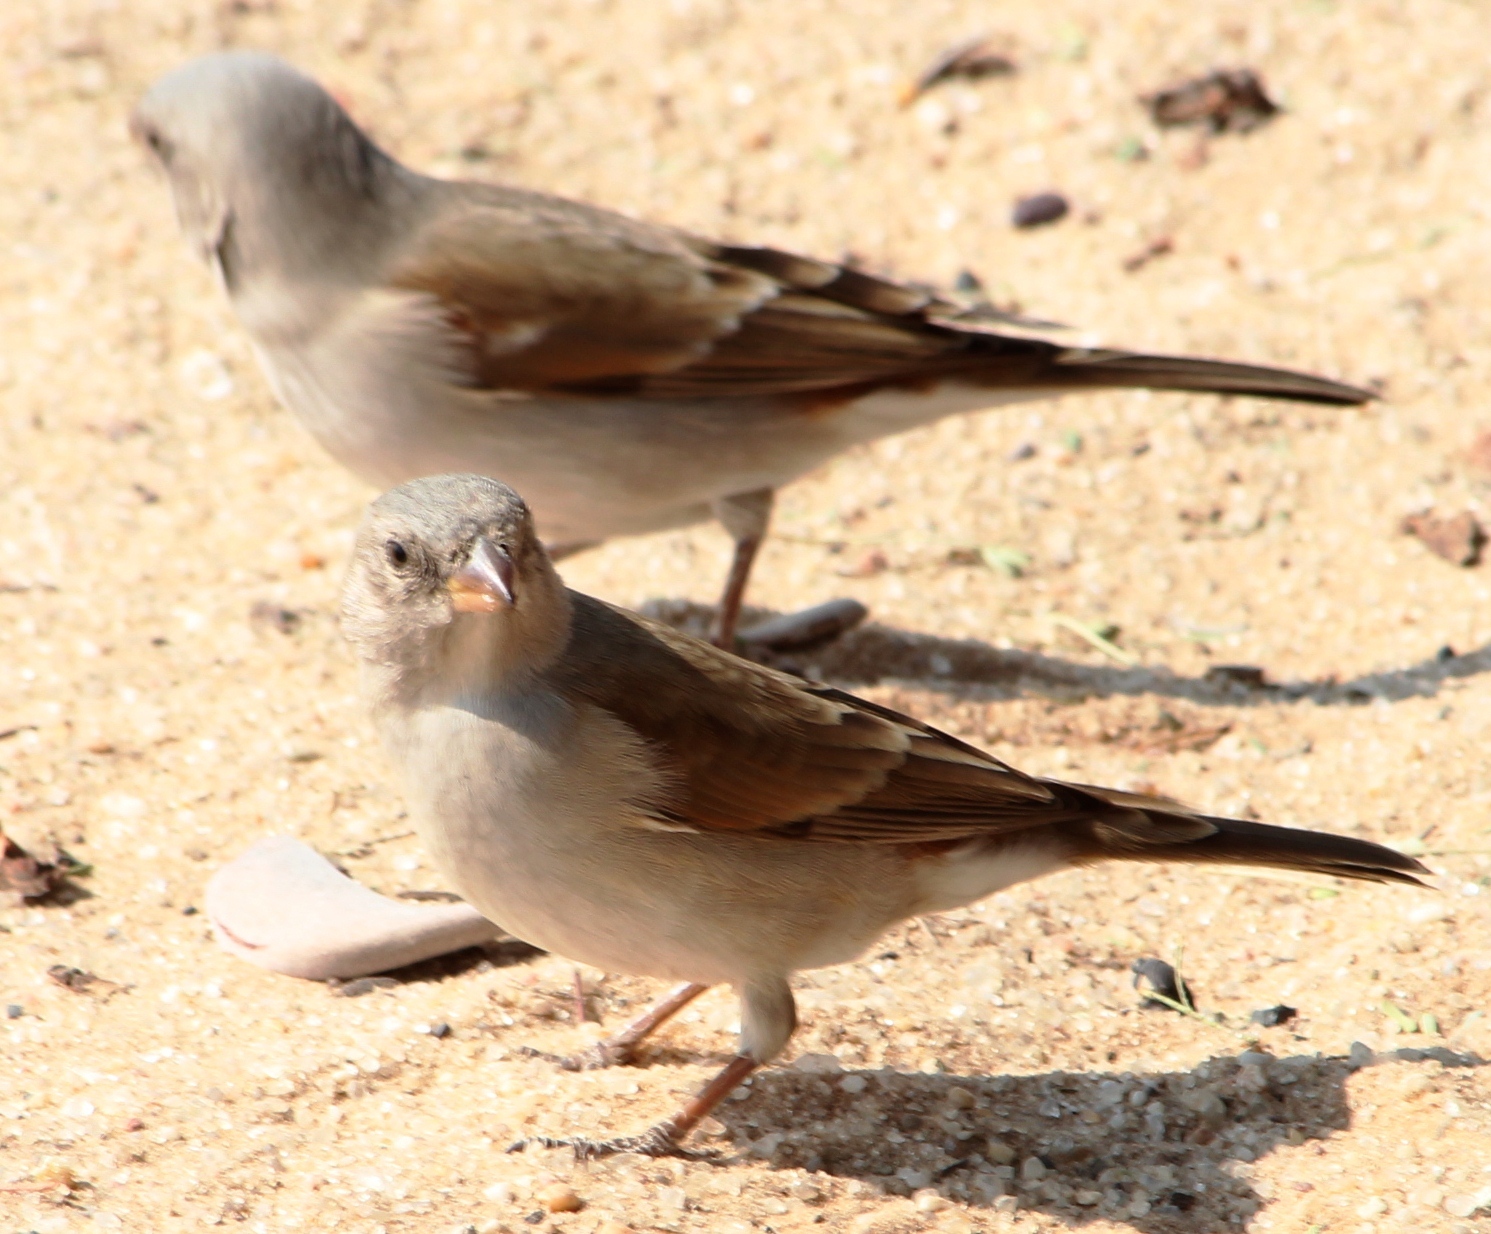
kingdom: Animalia
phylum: Chordata
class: Aves
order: Passeriformes
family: Passeridae
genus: Passer
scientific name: Passer diffusus
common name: Southern grey-headed sparrow
